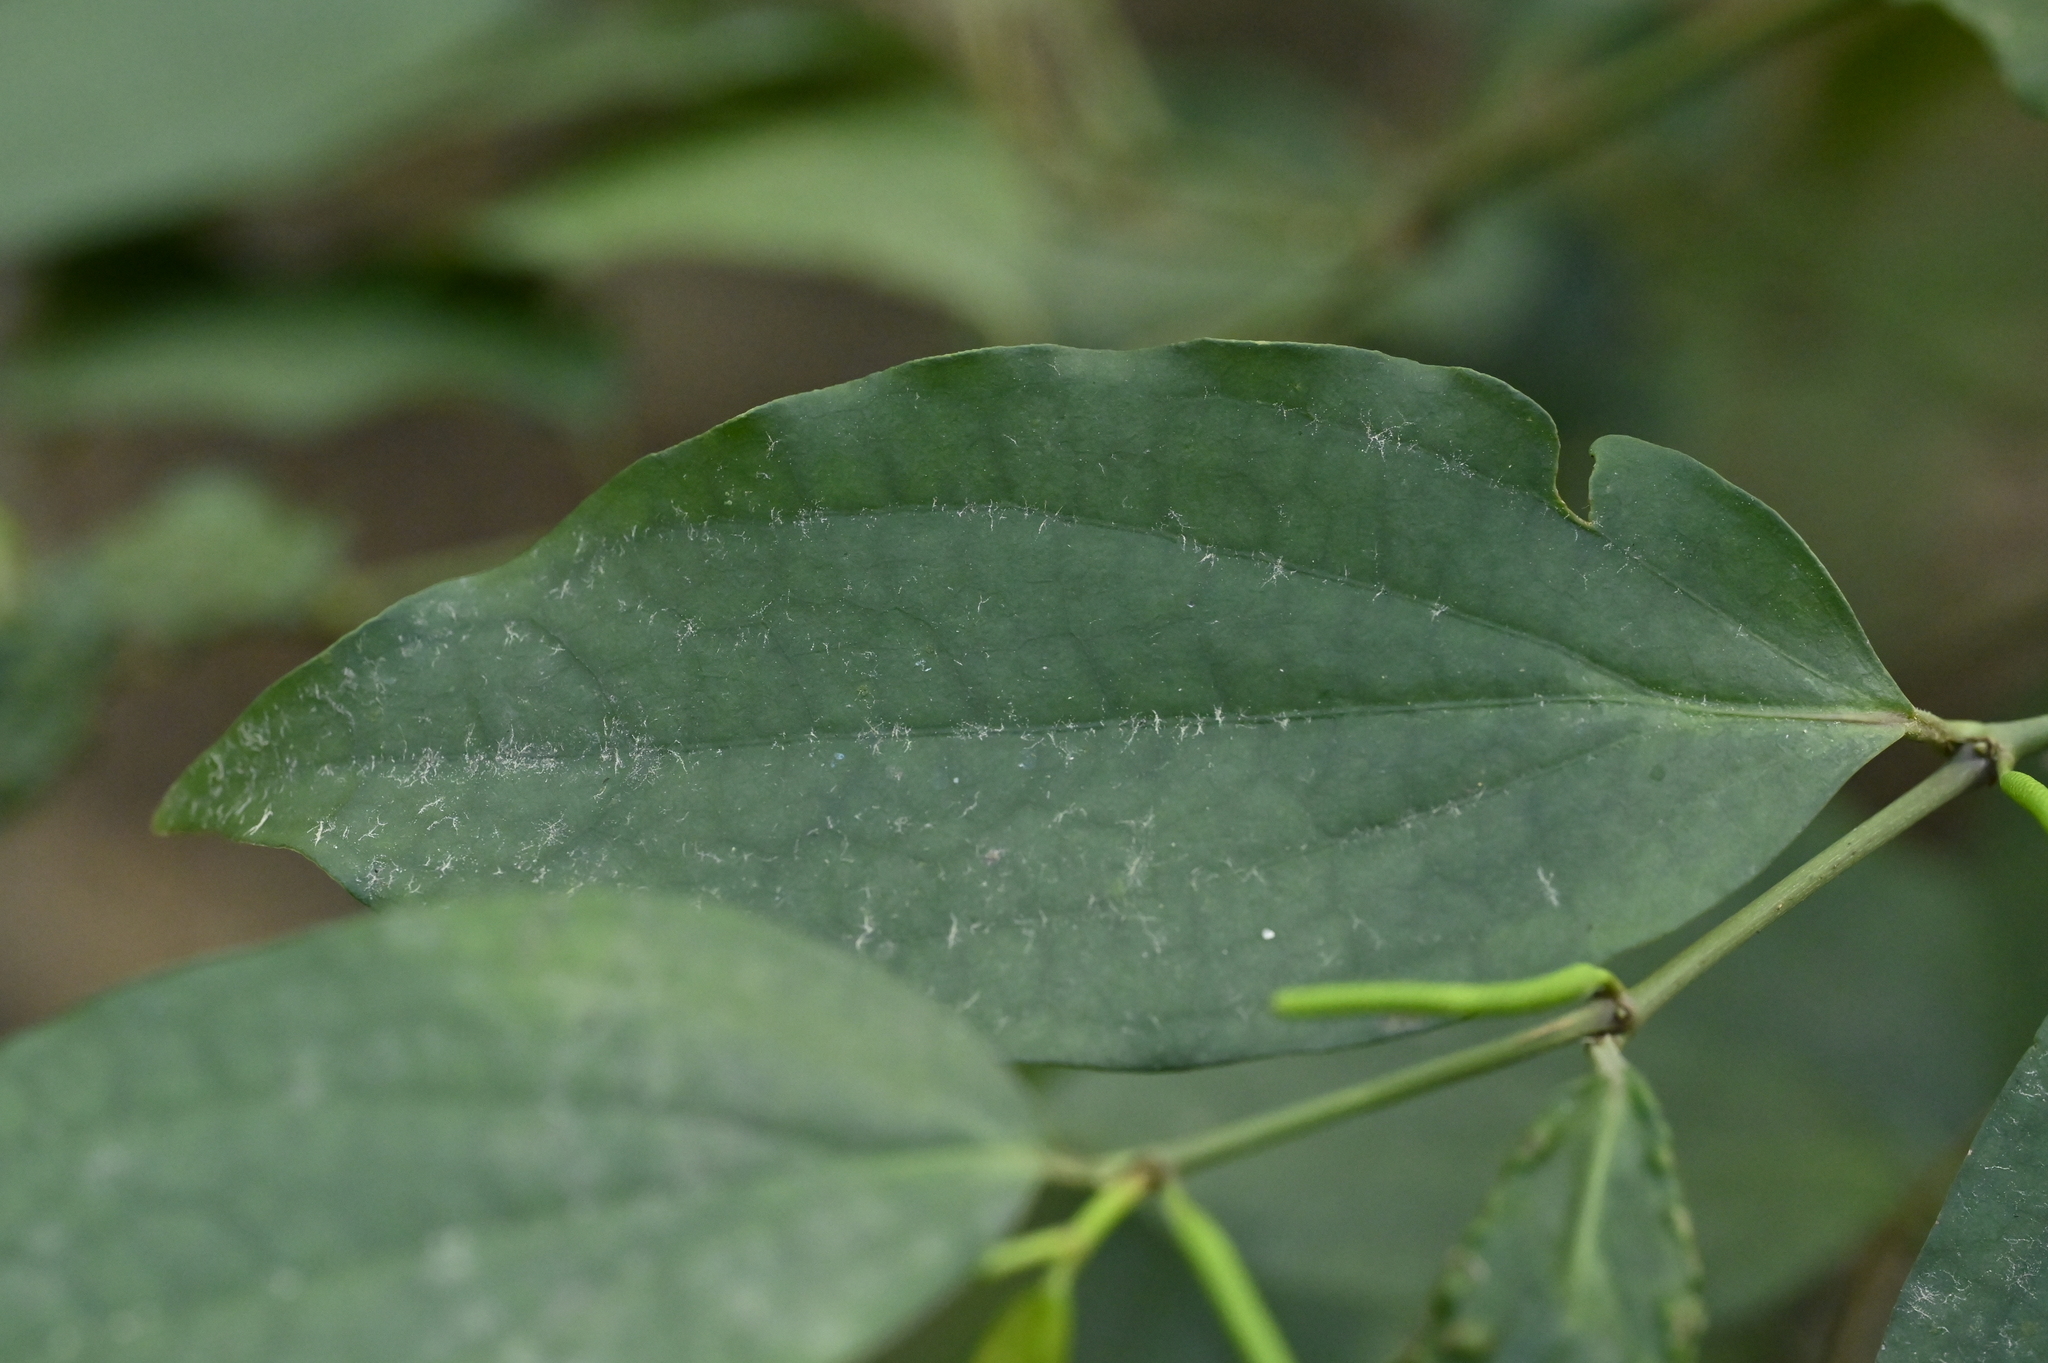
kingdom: Plantae
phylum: Tracheophyta
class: Magnoliopsida
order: Piperales
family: Piperaceae
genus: Piper
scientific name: Piper kadsura
